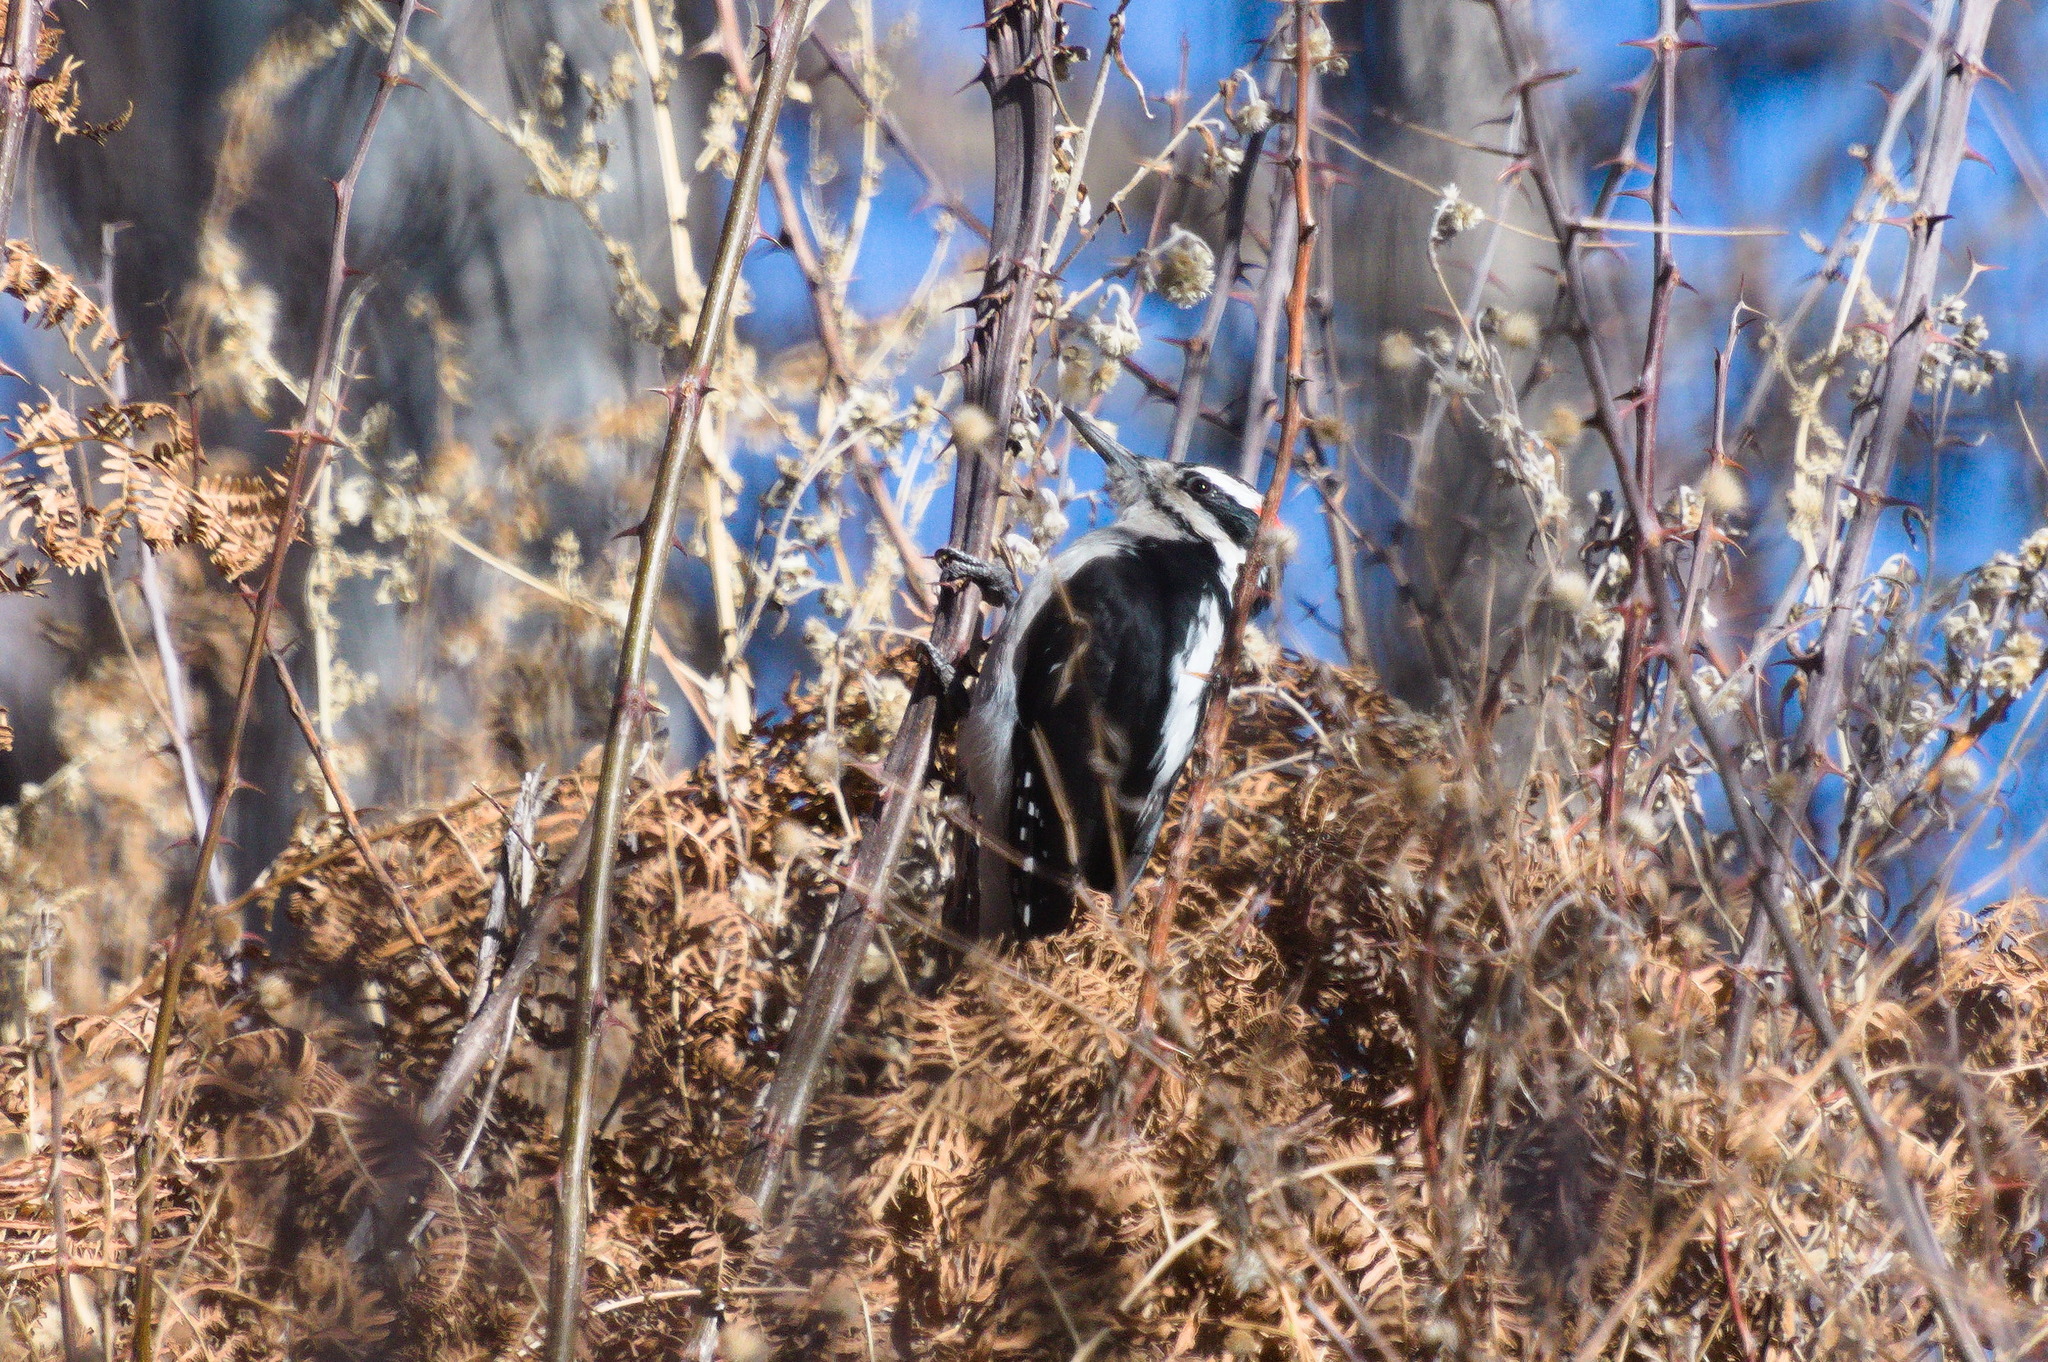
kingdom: Animalia
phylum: Chordata
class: Aves
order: Piciformes
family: Picidae
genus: Leuconotopicus
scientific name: Leuconotopicus villosus
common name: Hairy woodpecker
